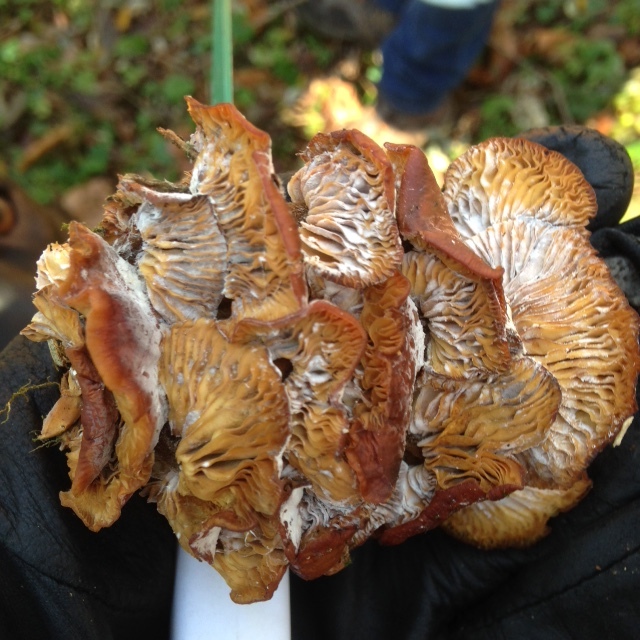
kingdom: Fungi
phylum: Basidiomycota
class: Agaricomycetes
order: Agaricales
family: Physalacriaceae
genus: Flammulina
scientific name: Flammulina velutipes
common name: Velvet shank
